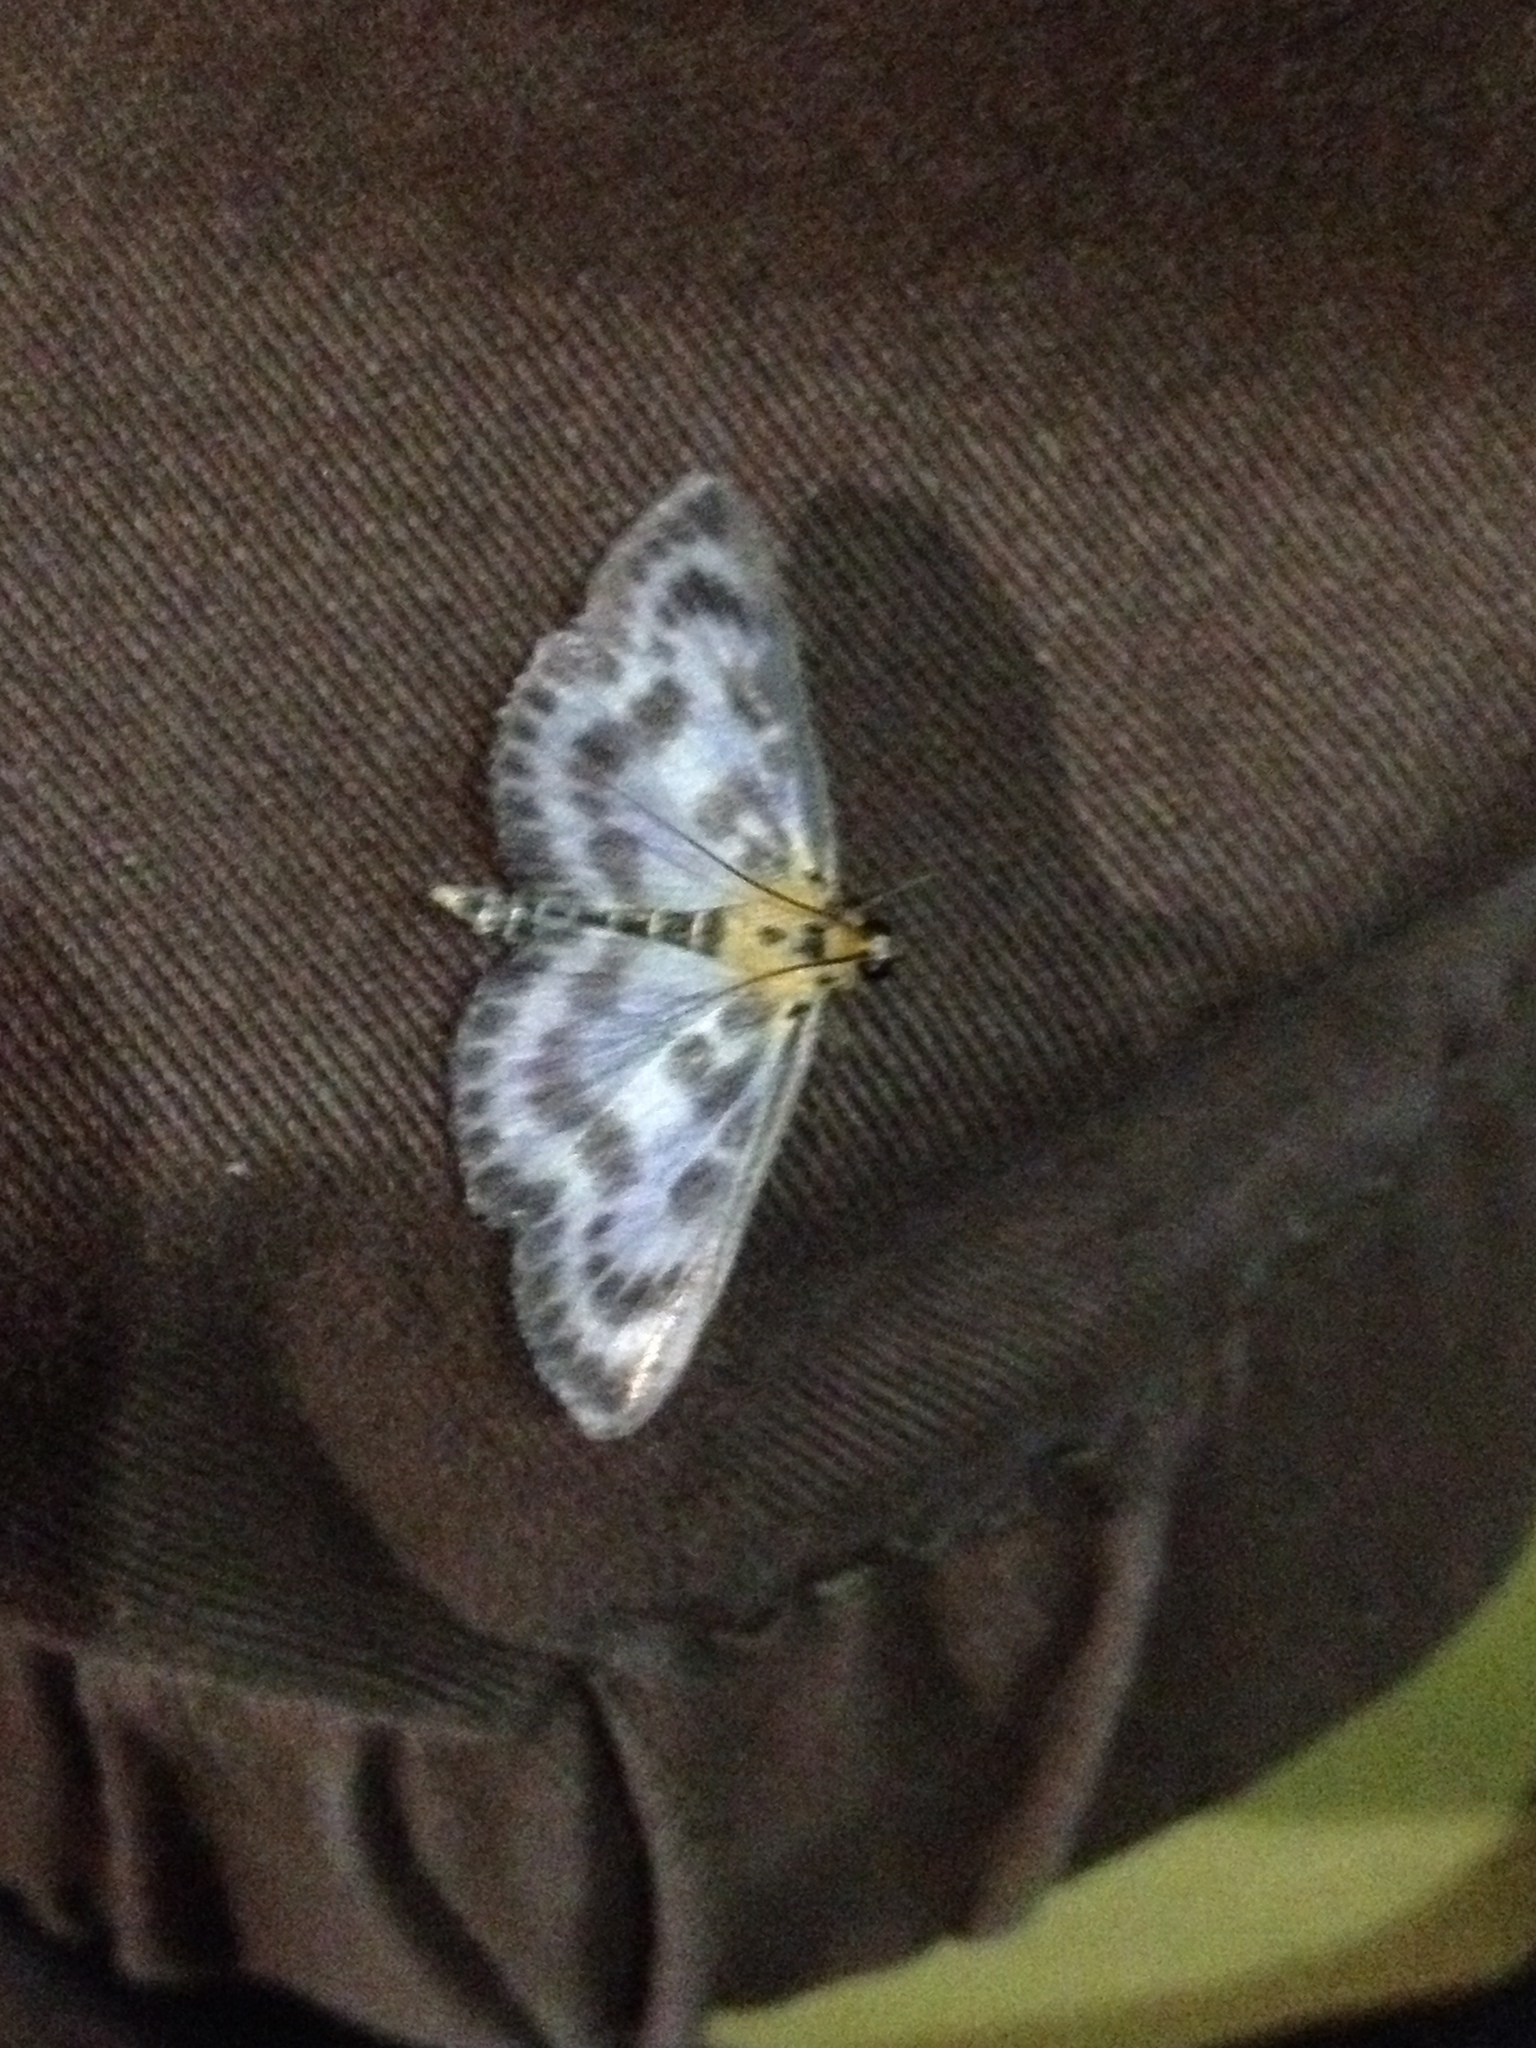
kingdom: Animalia
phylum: Arthropoda
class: Insecta
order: Lepidoptera
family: Crambidae
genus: Anania
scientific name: Anania hortulata
